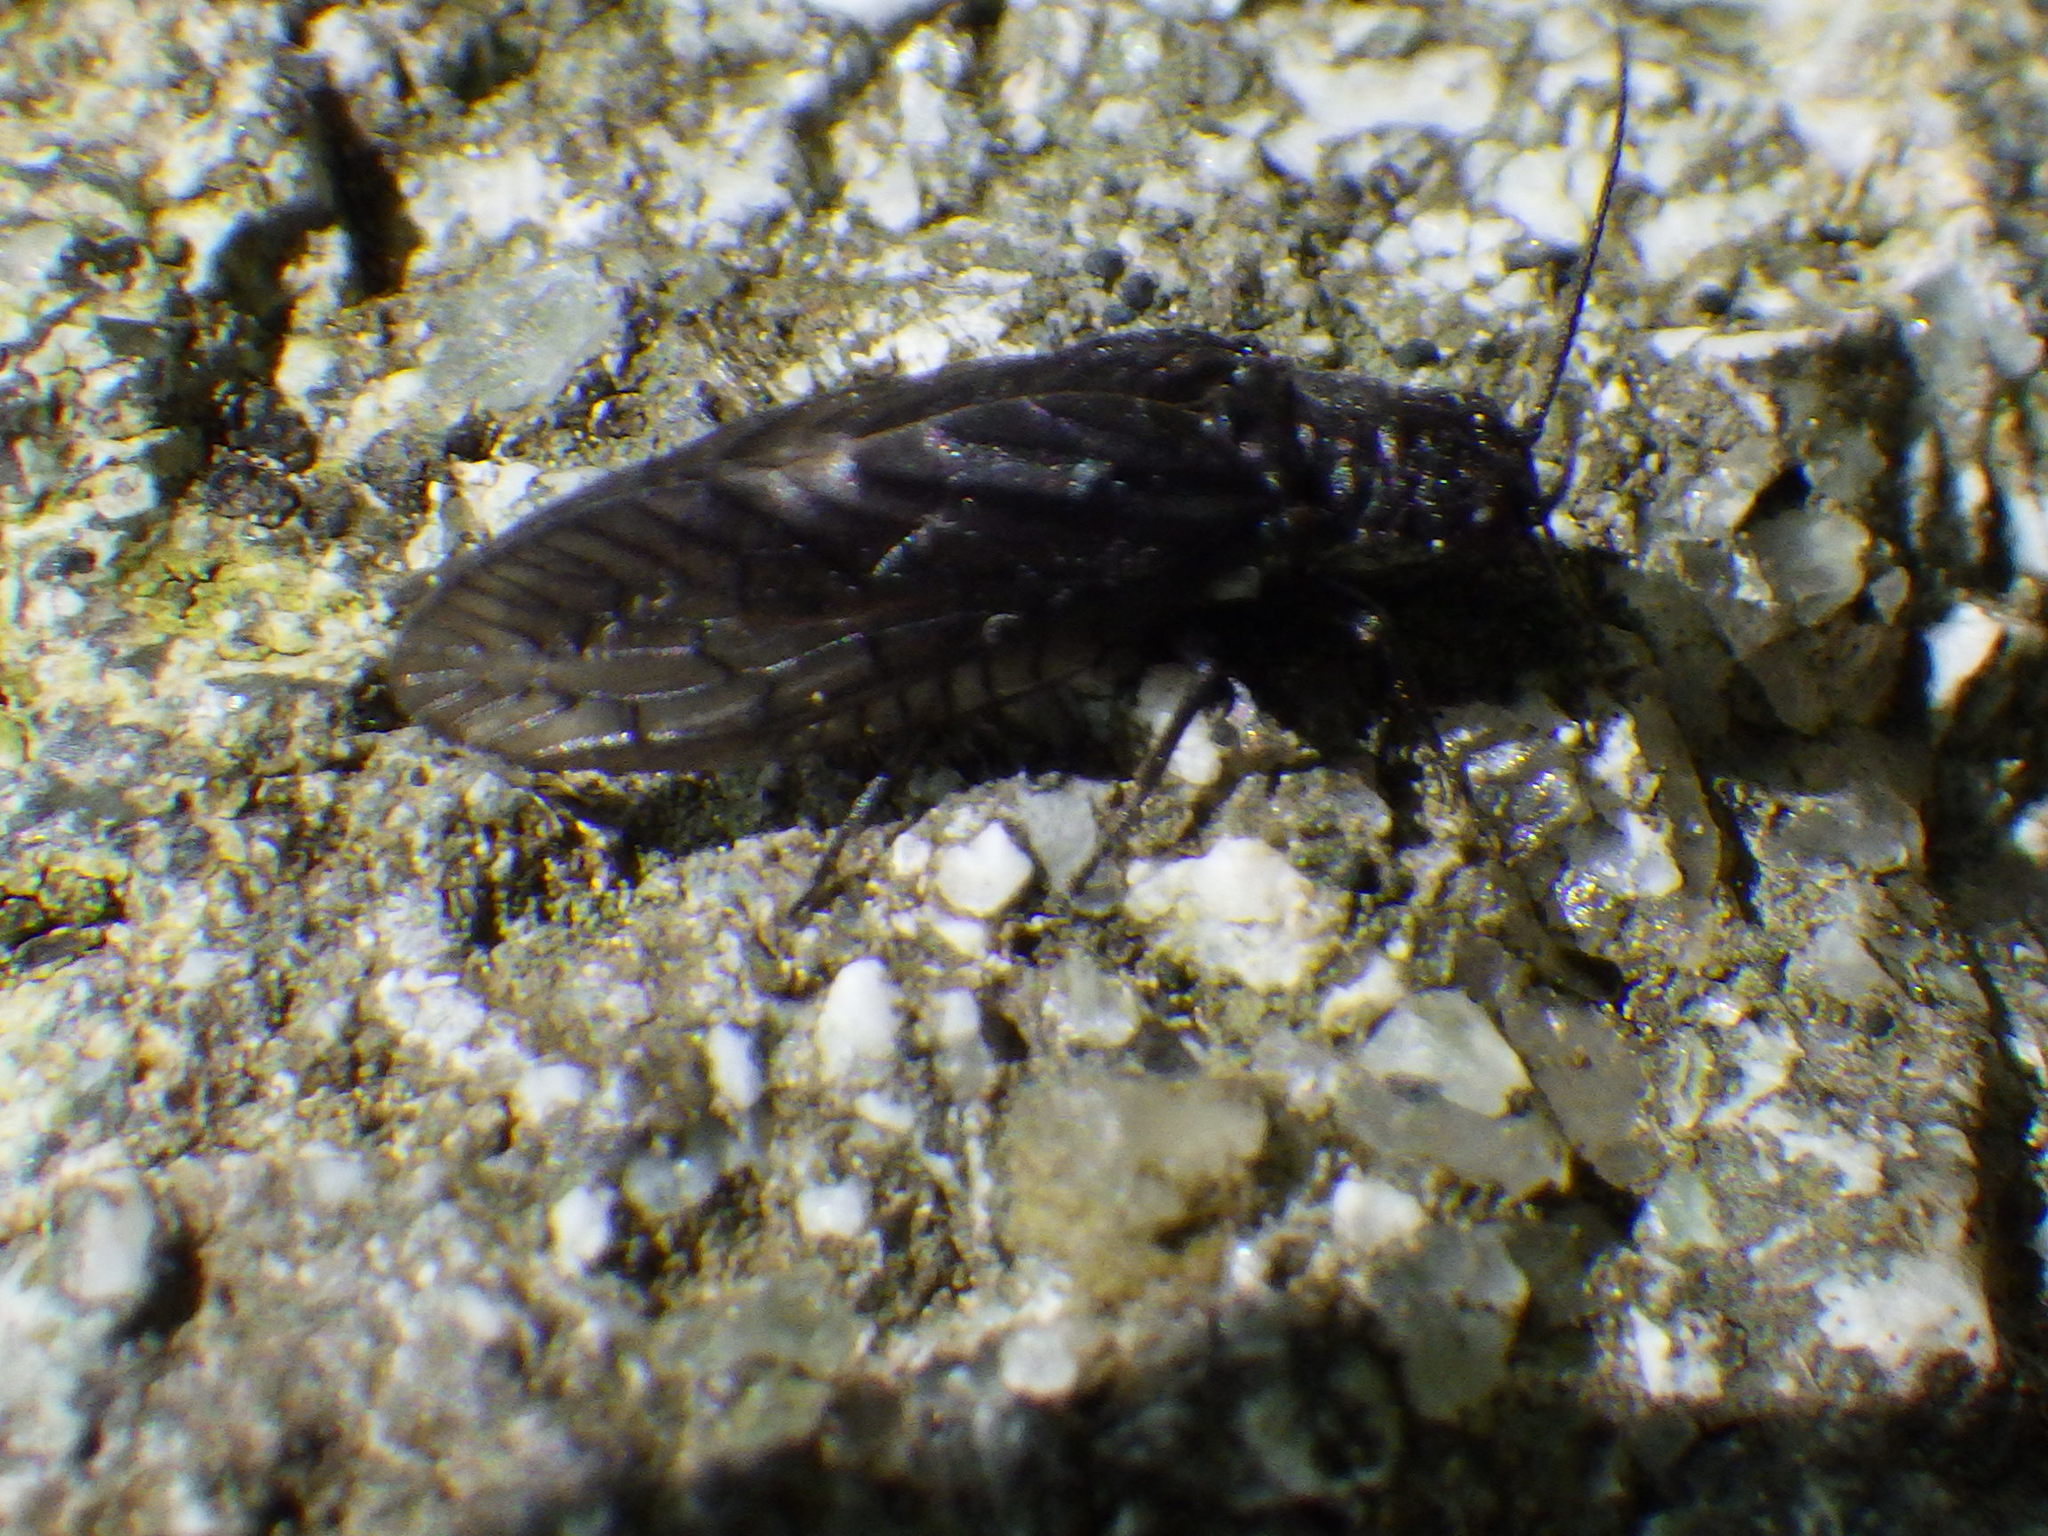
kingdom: Animalia
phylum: Arthropoda
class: Insecta
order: Megaloptera
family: Sialidae
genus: Sialis
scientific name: Sialis
